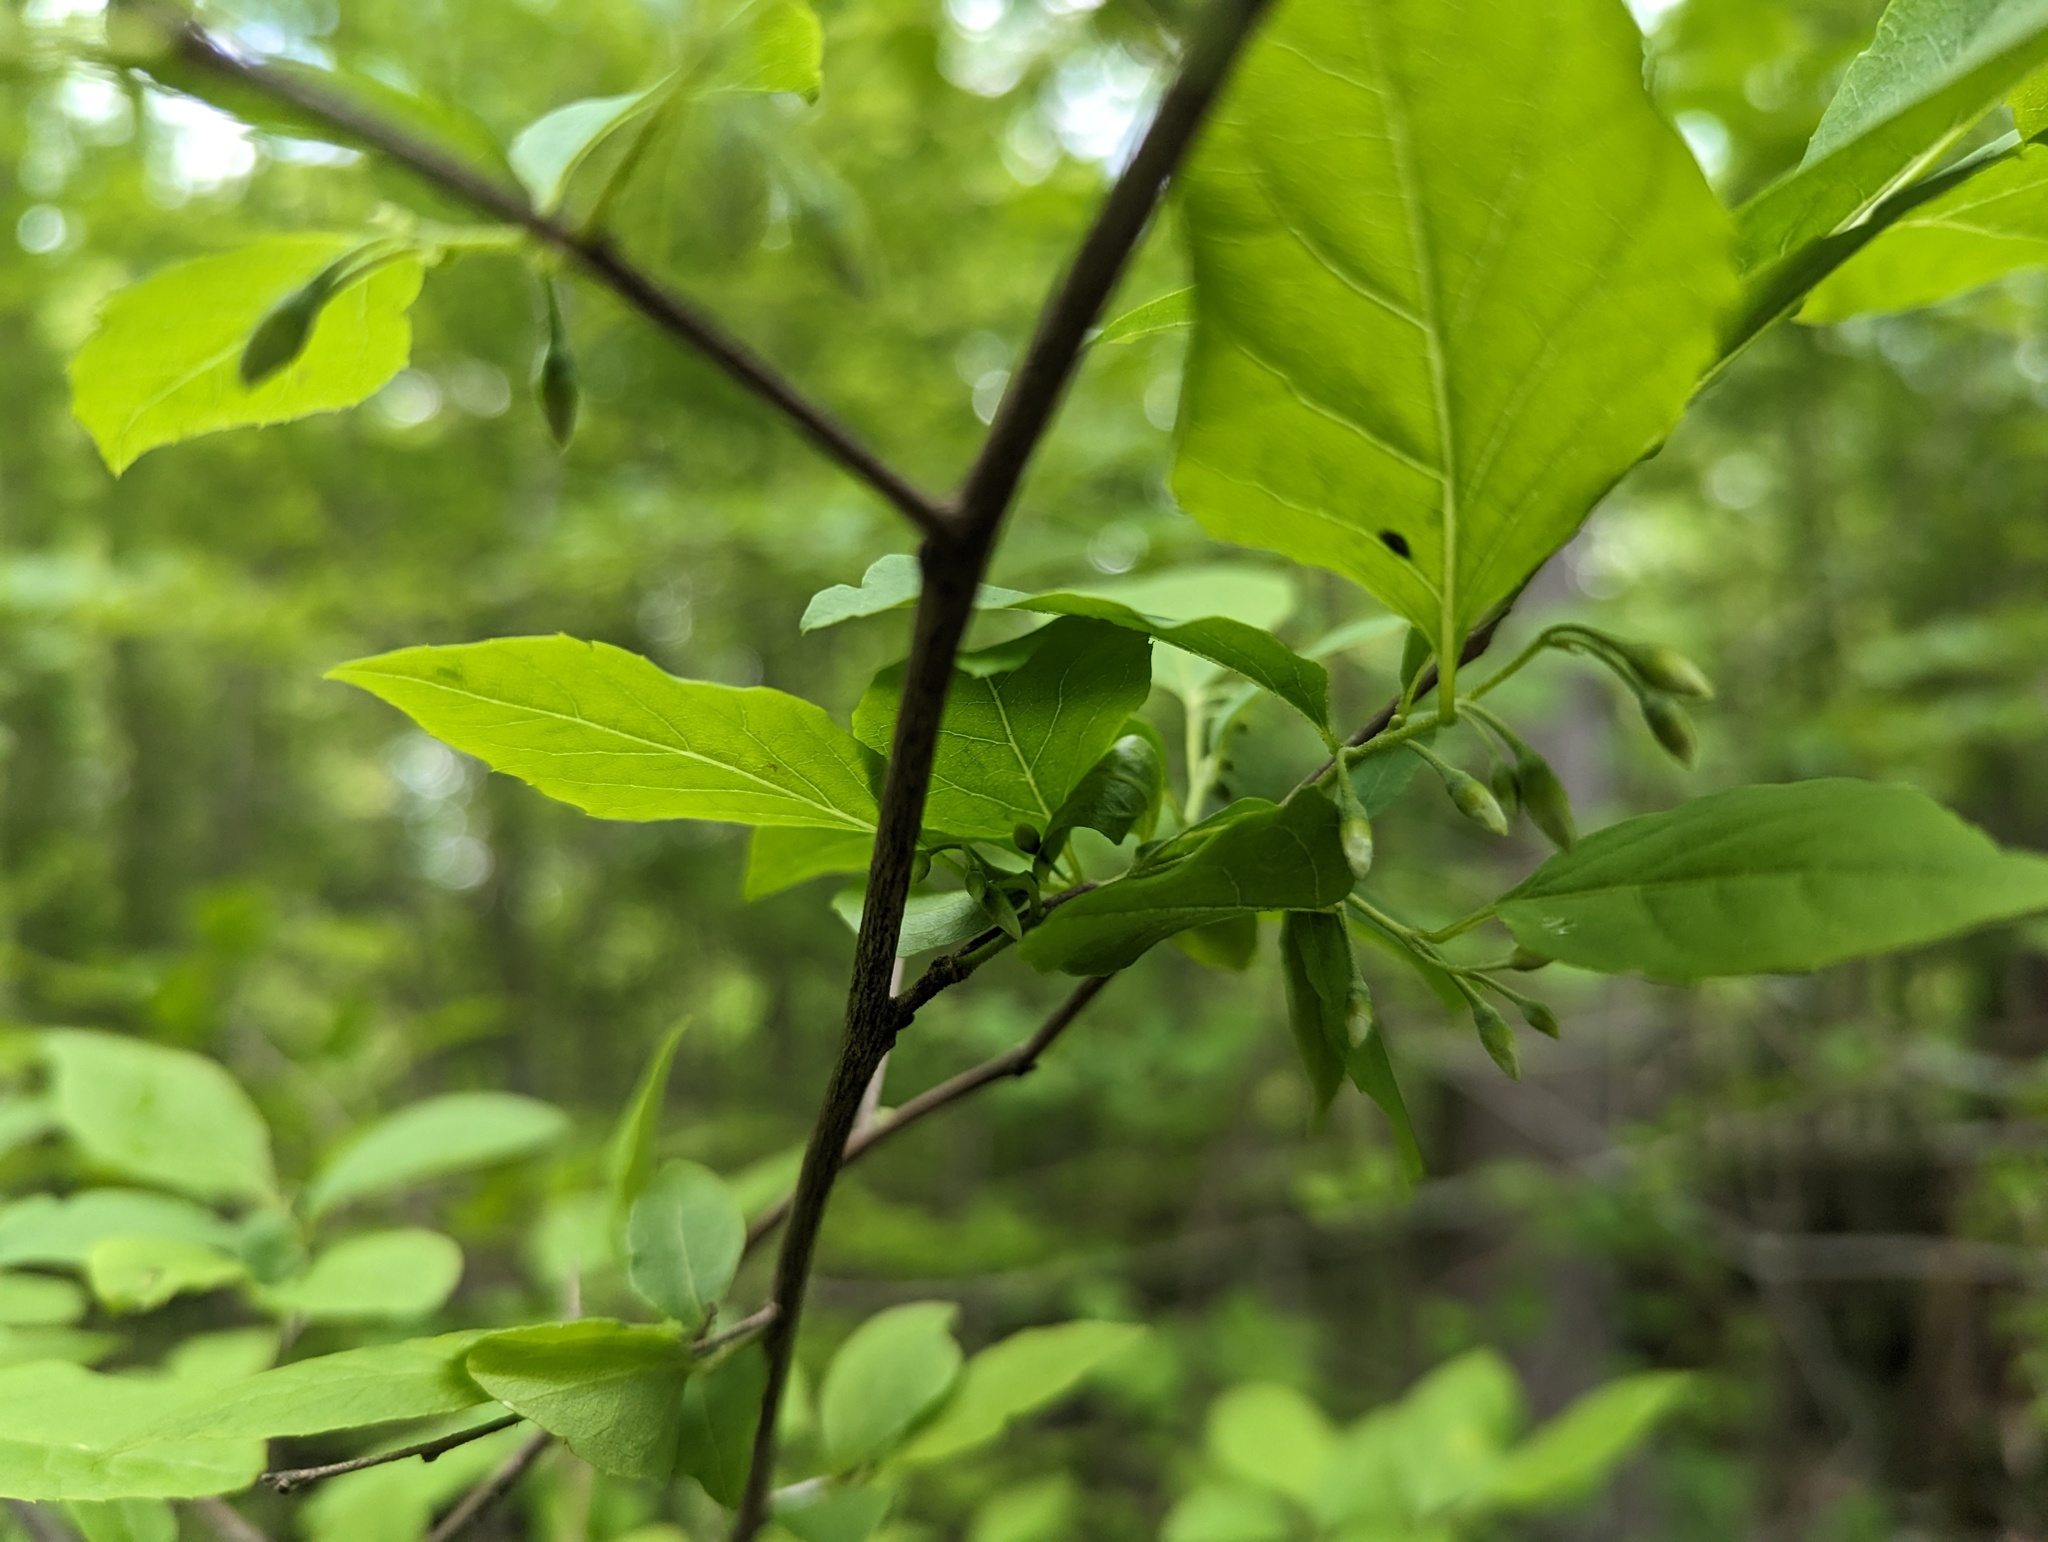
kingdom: Plantae
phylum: Tracheophyta
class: Magnoliopsida
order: Ericales
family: Styracaceae
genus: Styrax
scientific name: Styrax americanus
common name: American snowbell
